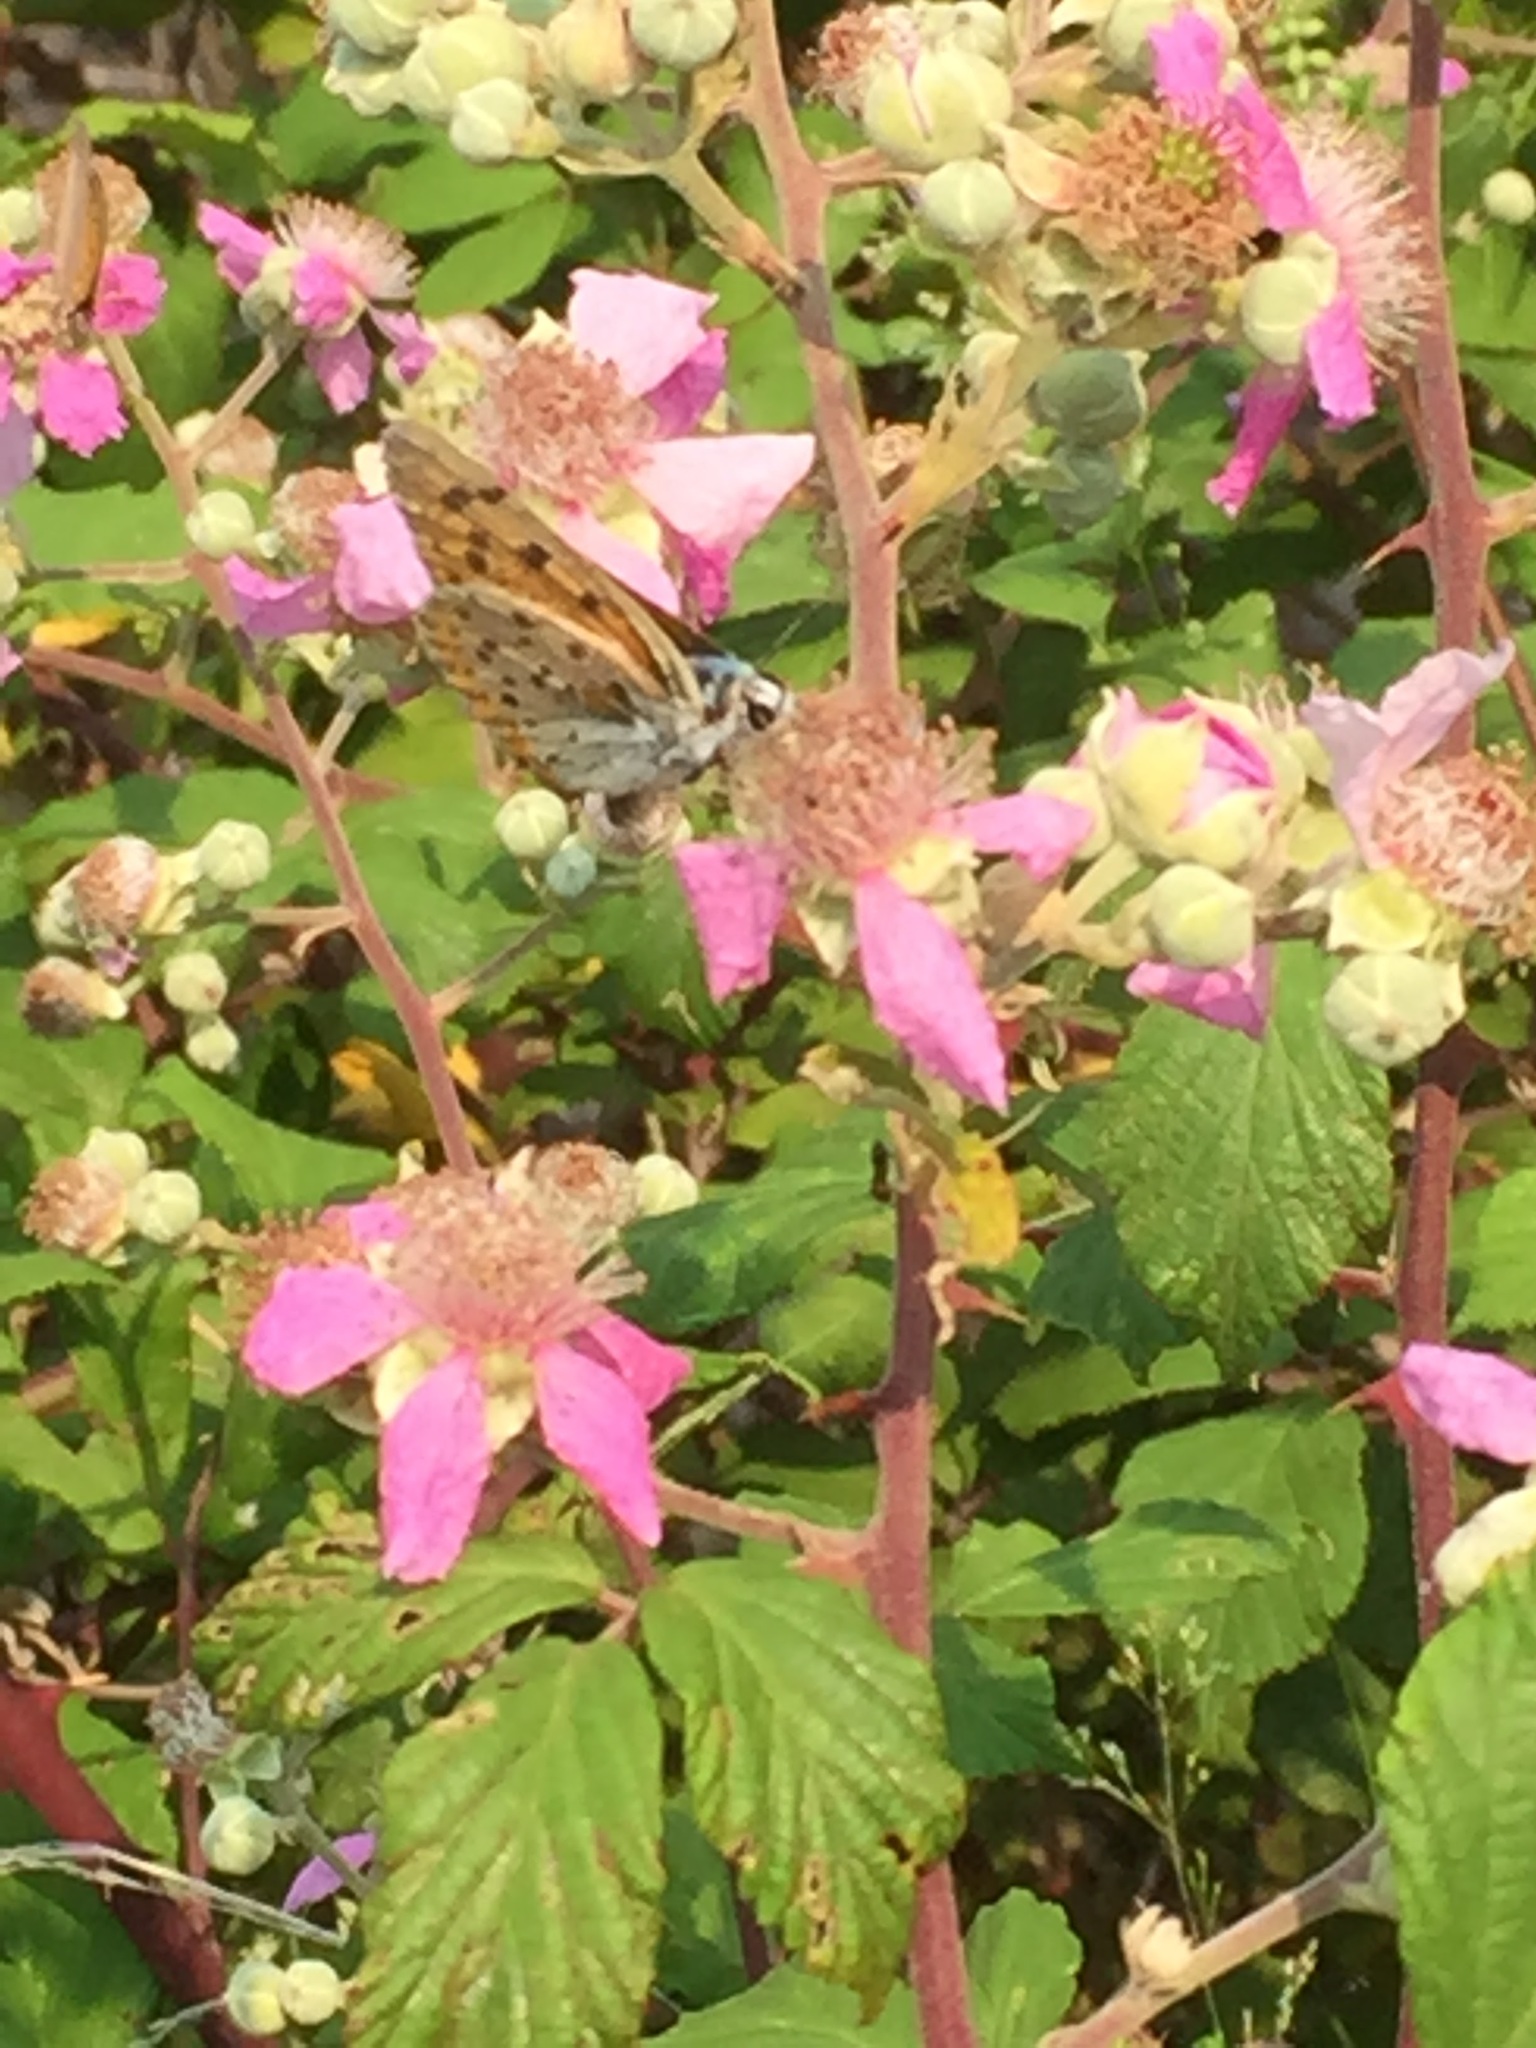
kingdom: Animalia
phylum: Arthropoda
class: Insecta
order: Lepidoptera
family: Lycaenidae
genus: Lycaena
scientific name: Lycaena alciphron
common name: Purple-shot copper
